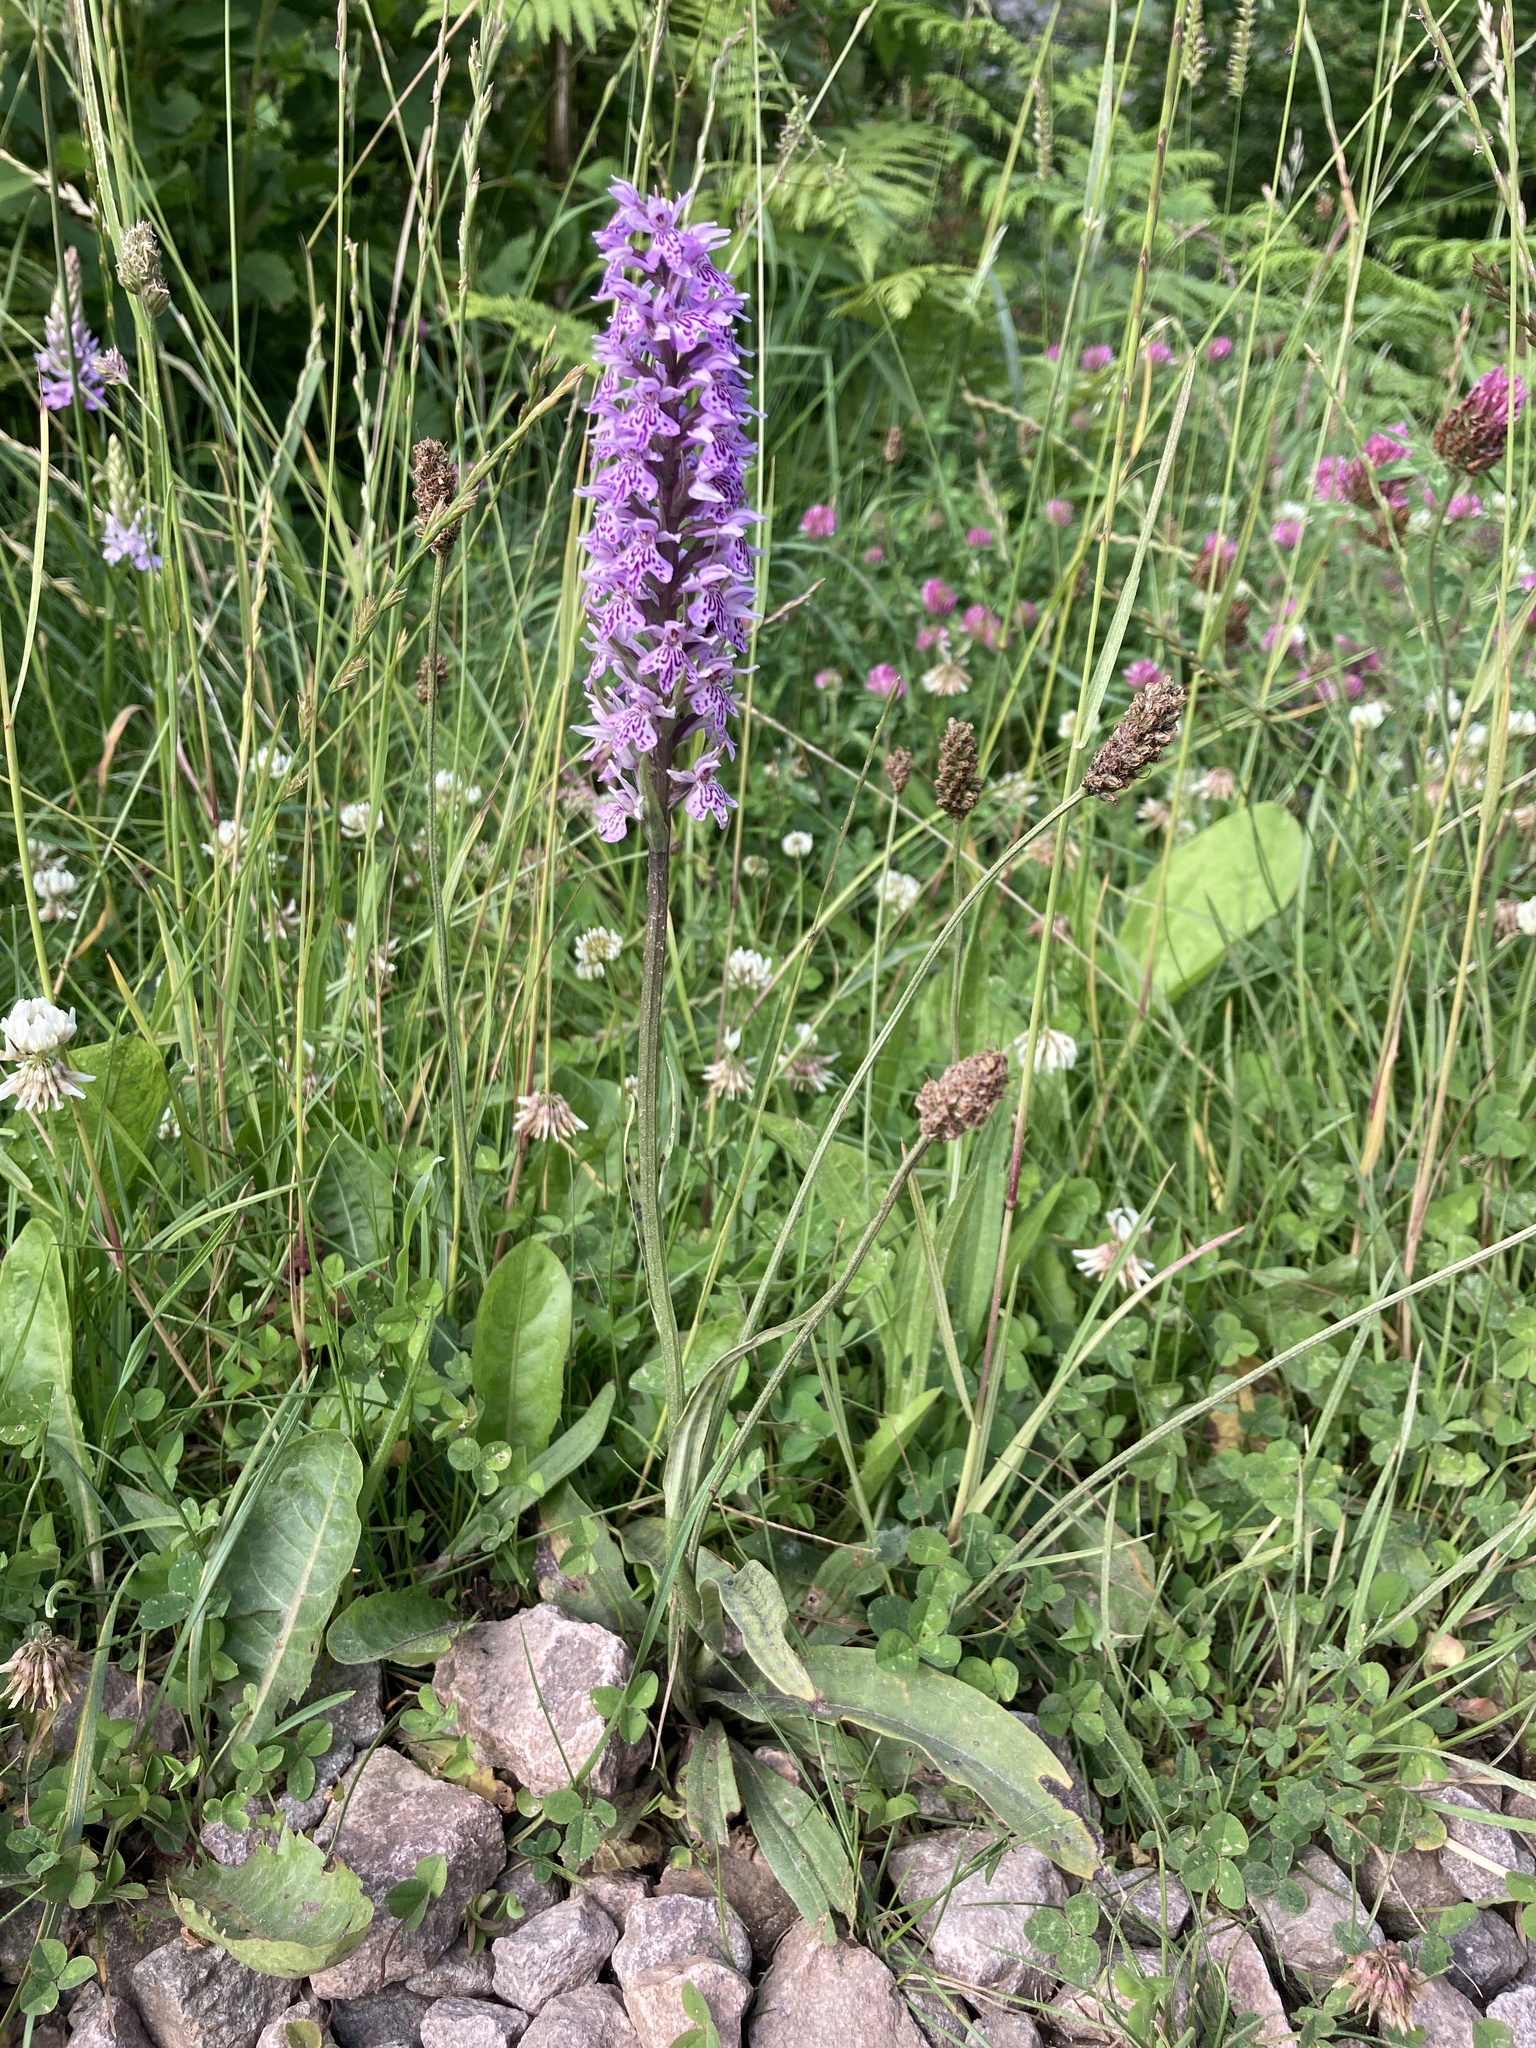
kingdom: Plantae
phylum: Tracheophyta
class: Liliopsida
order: Asparagales
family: Orchidaceae
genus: Dactylorhiza
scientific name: Dactylorhiza maculata
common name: Heath spotted-orchid
